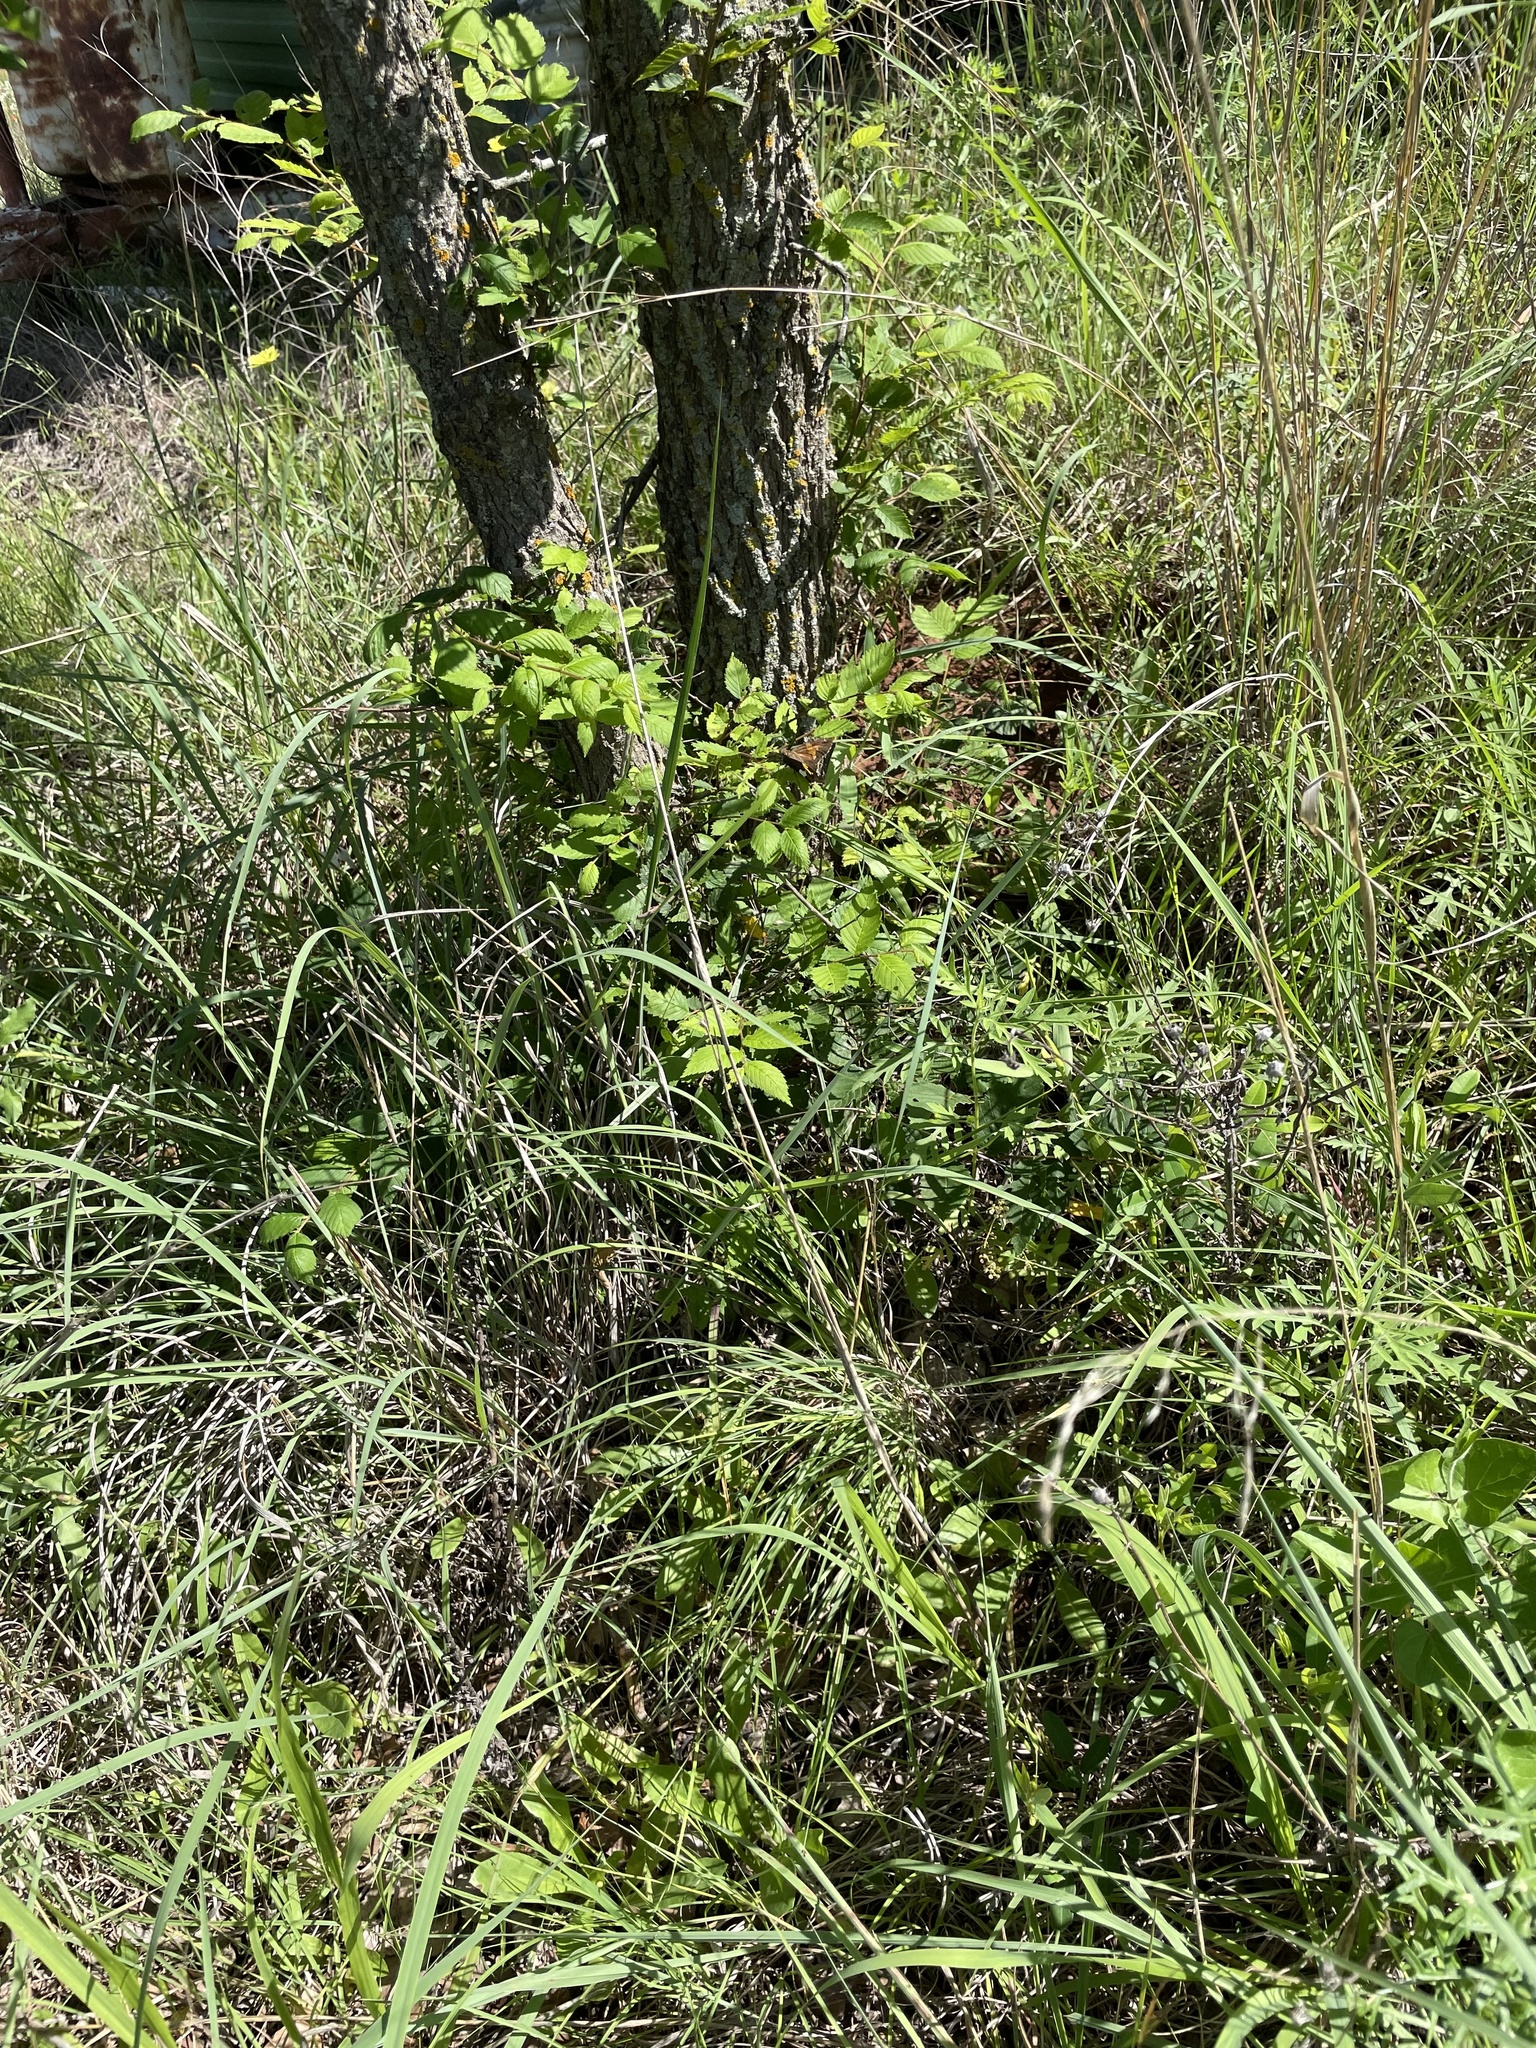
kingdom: Animalia
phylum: Arthropoda
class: Insecta
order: Lepidoptera
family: Hesperiidae
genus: Epargyreus
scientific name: Epargyreus clarus
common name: Silver-spotted skipper
